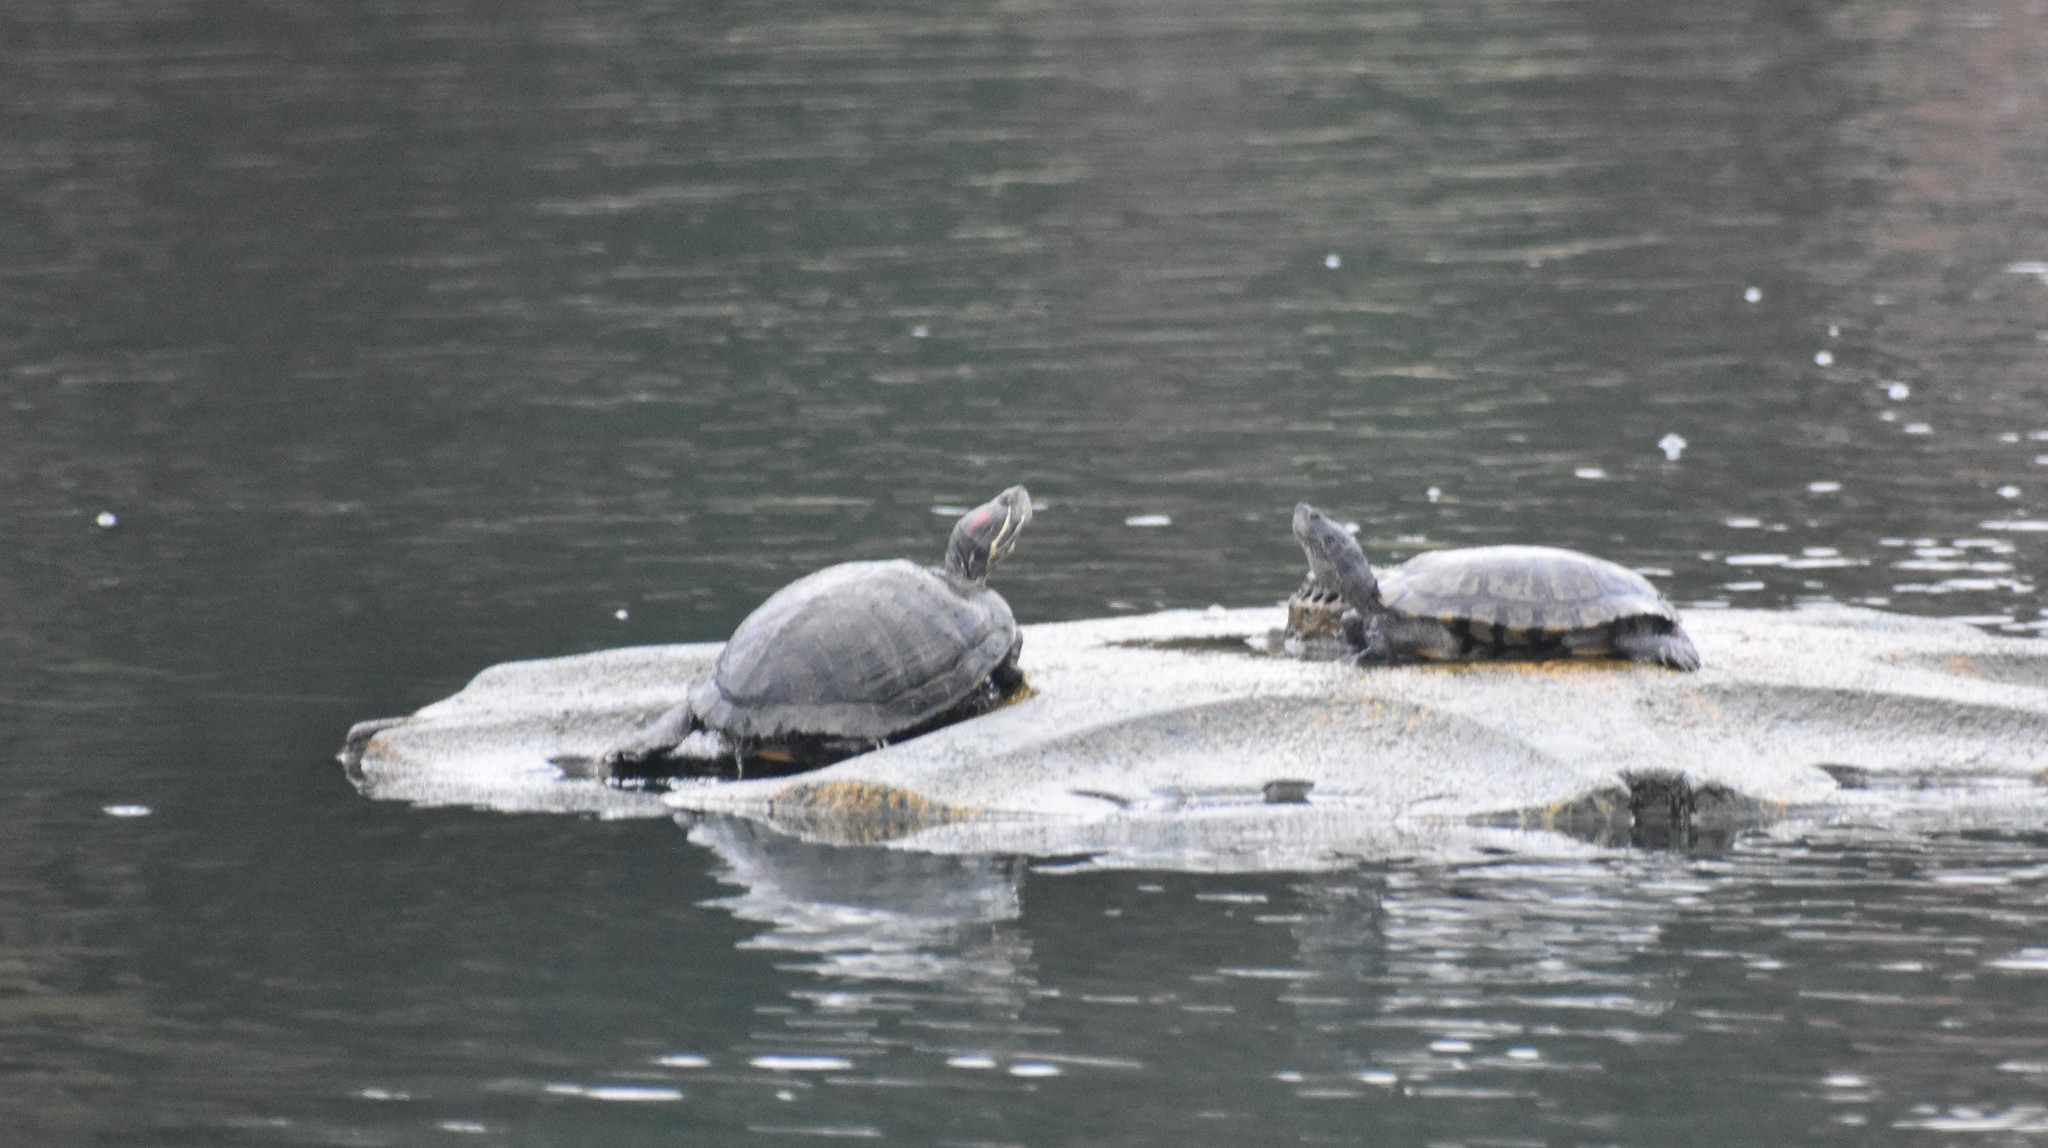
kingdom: Animalia
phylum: Chordata
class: Testudines
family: Emydidae
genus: Trachemys
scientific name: Trachemys scripta
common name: Slider
